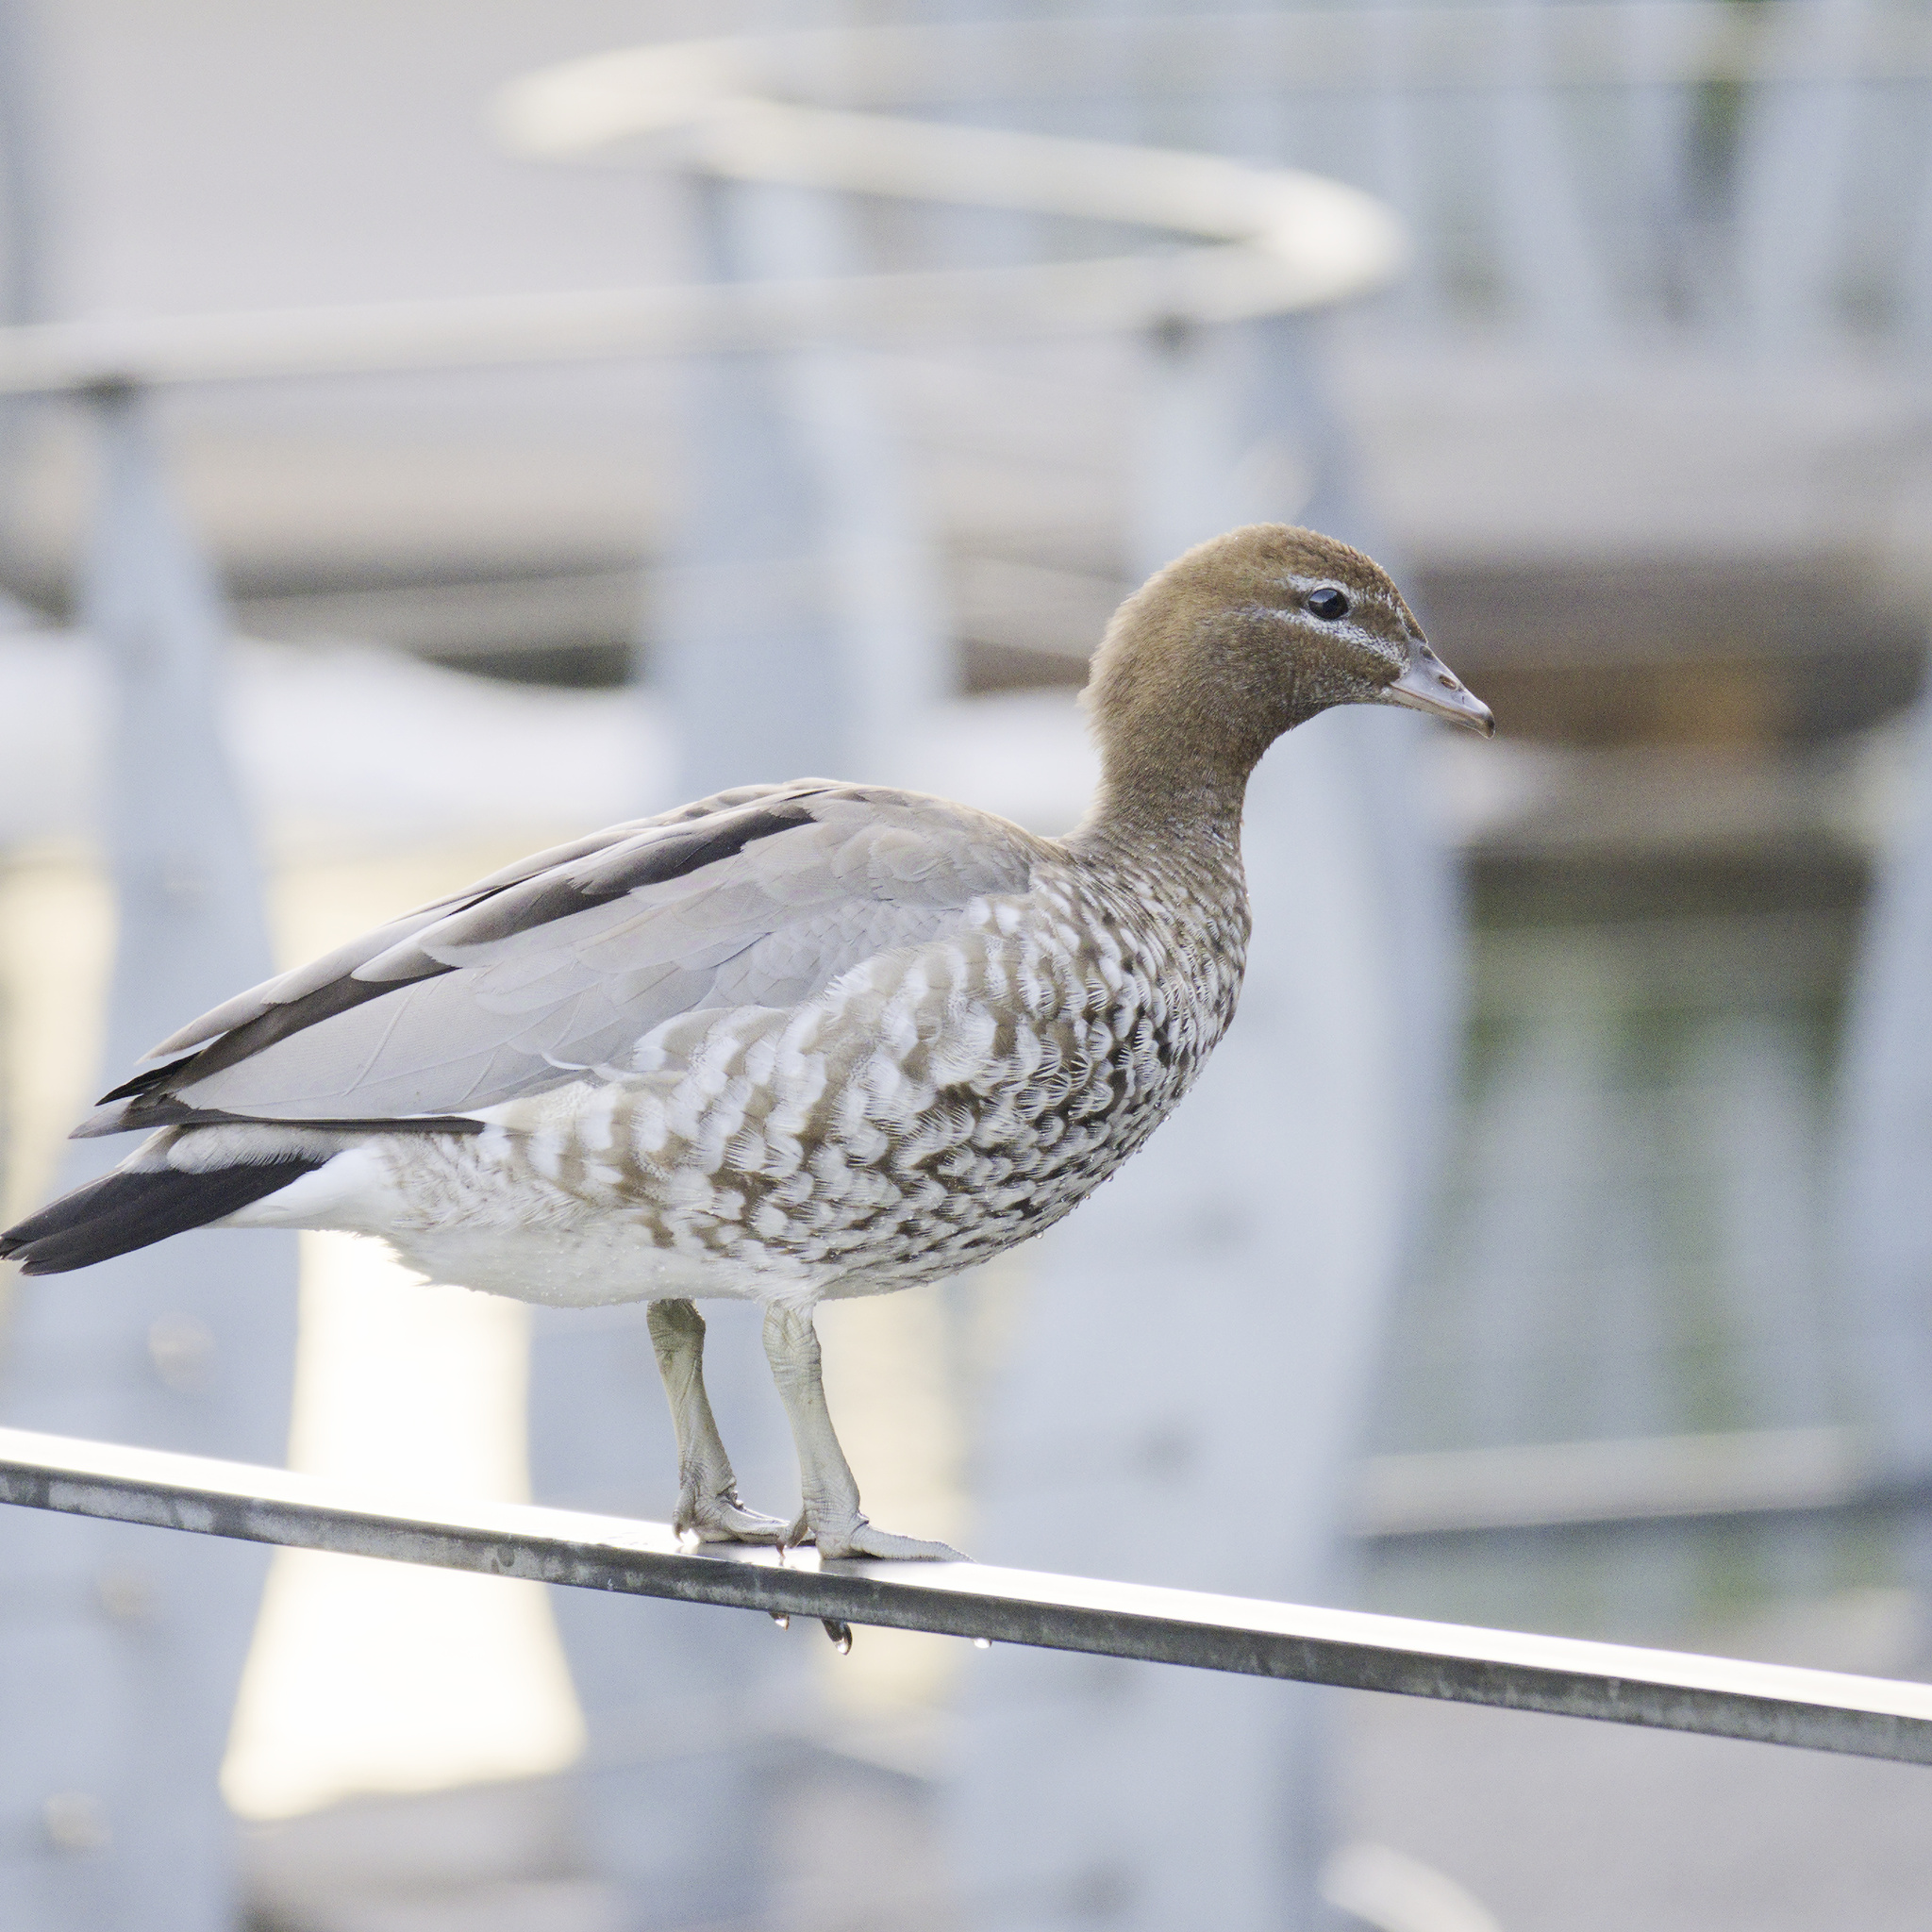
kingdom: Animalia
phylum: Chordata
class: Aves
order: Anseriformes
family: Anatidae
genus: Chenonetta
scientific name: Chenonetta jubata
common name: Maned duck
